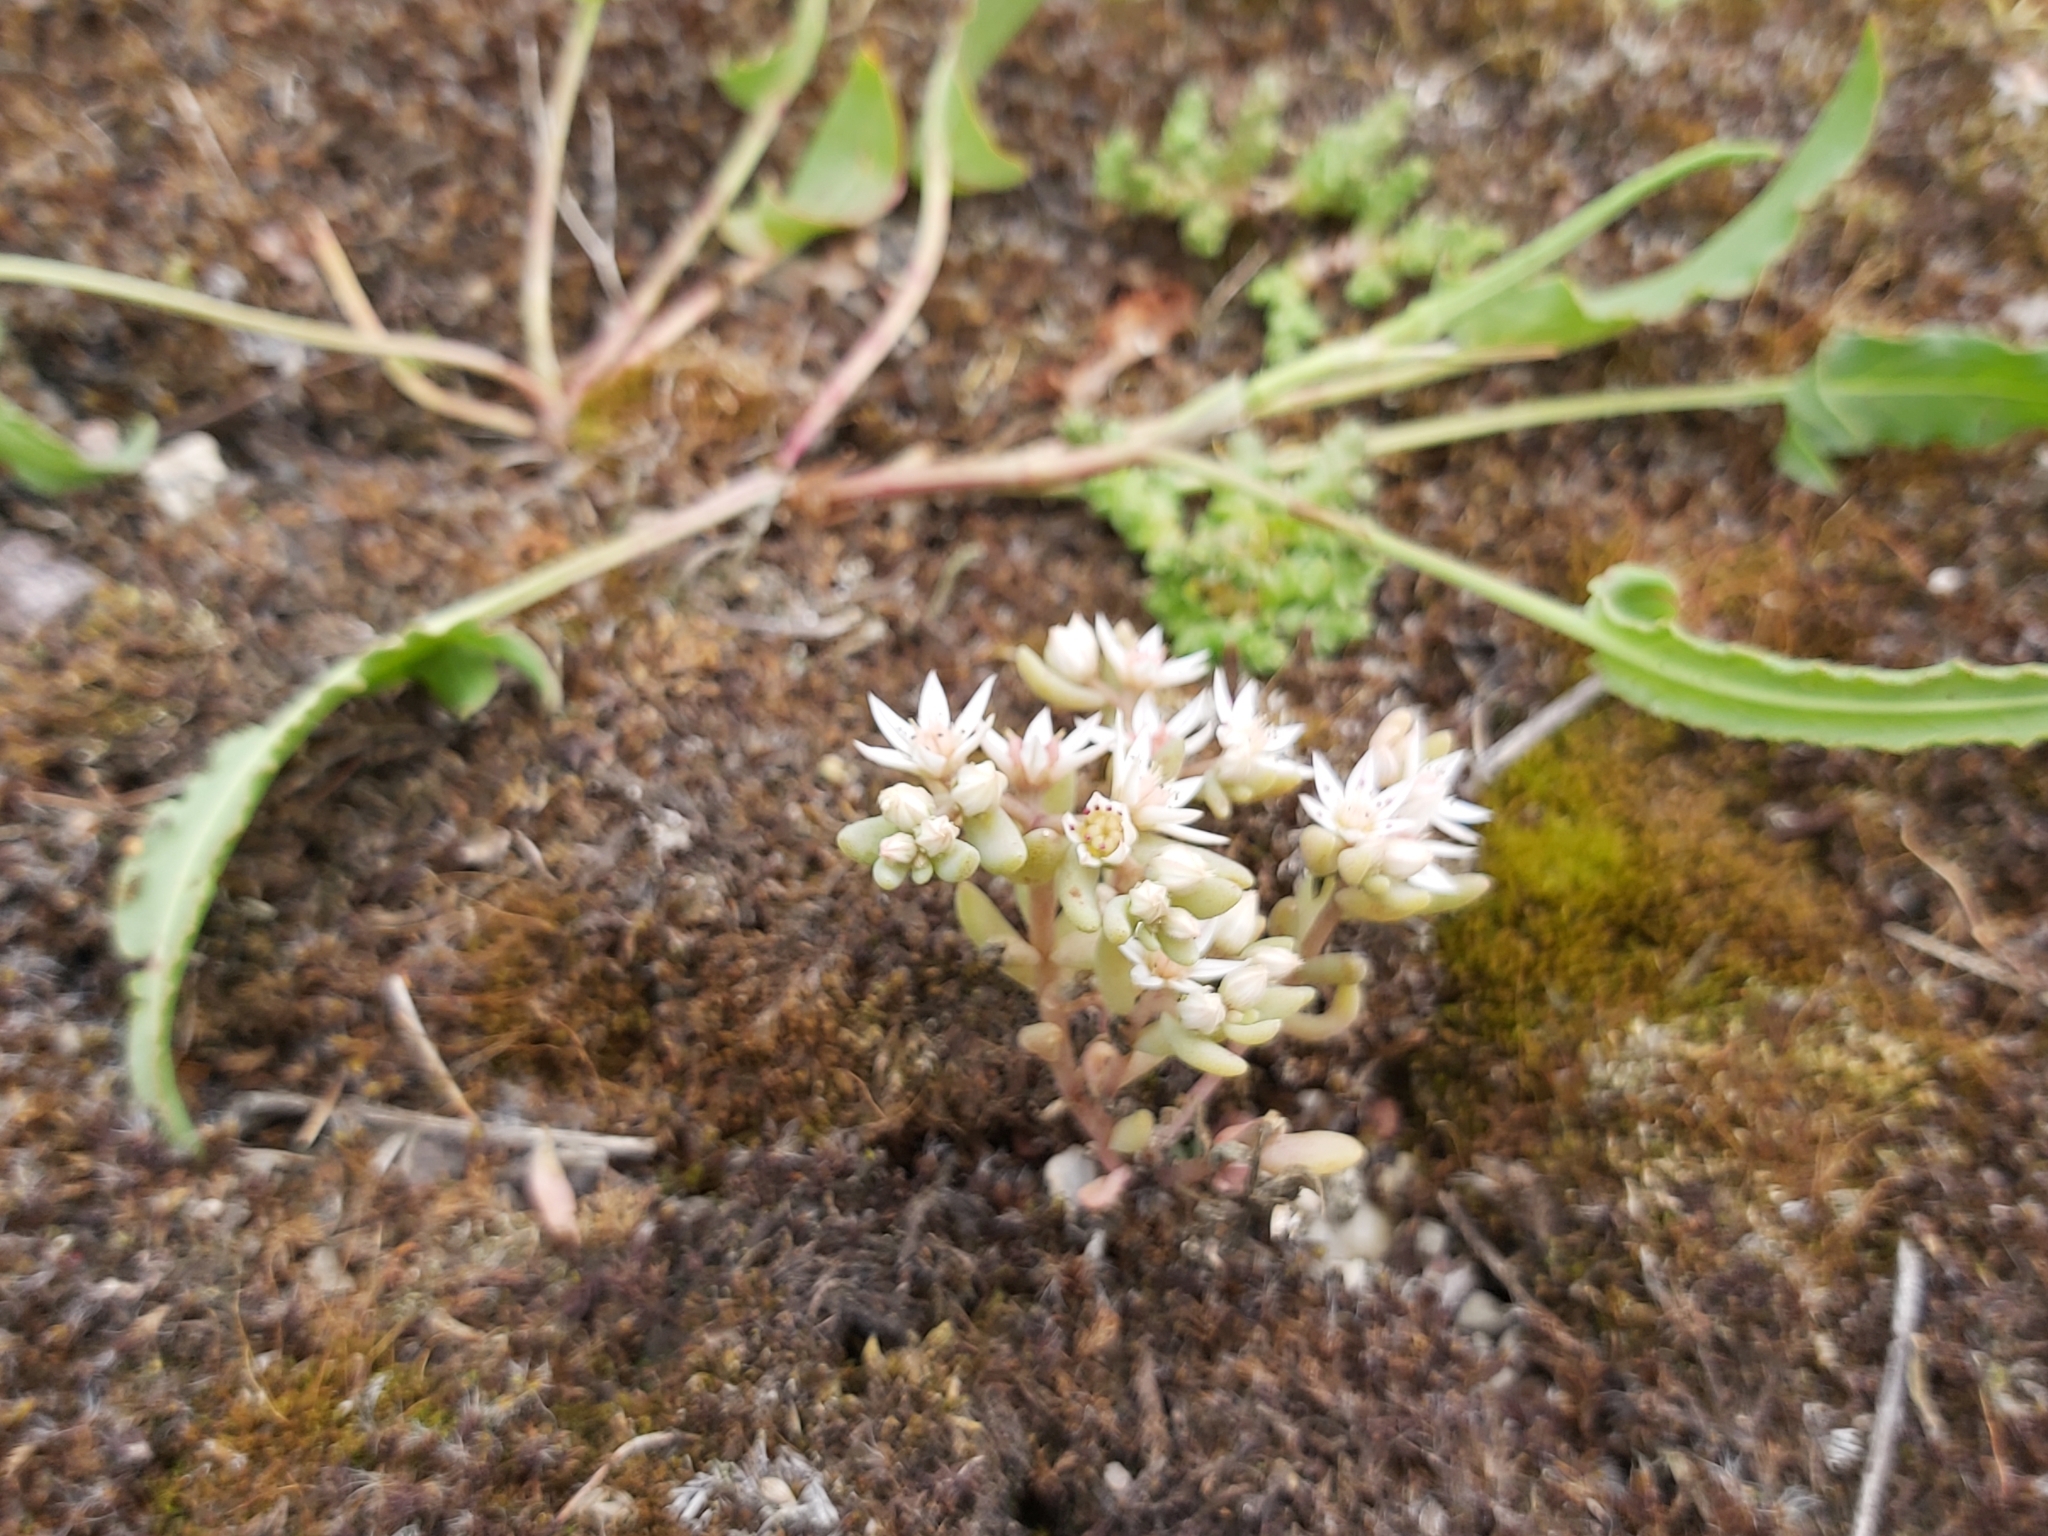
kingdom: Plantae
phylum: Tracheophyta
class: Magnoliopsida
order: Saxifragales
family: Crassulaceae
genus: Sedum
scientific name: Sedum hispanicum
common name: Spanish stonecrop
